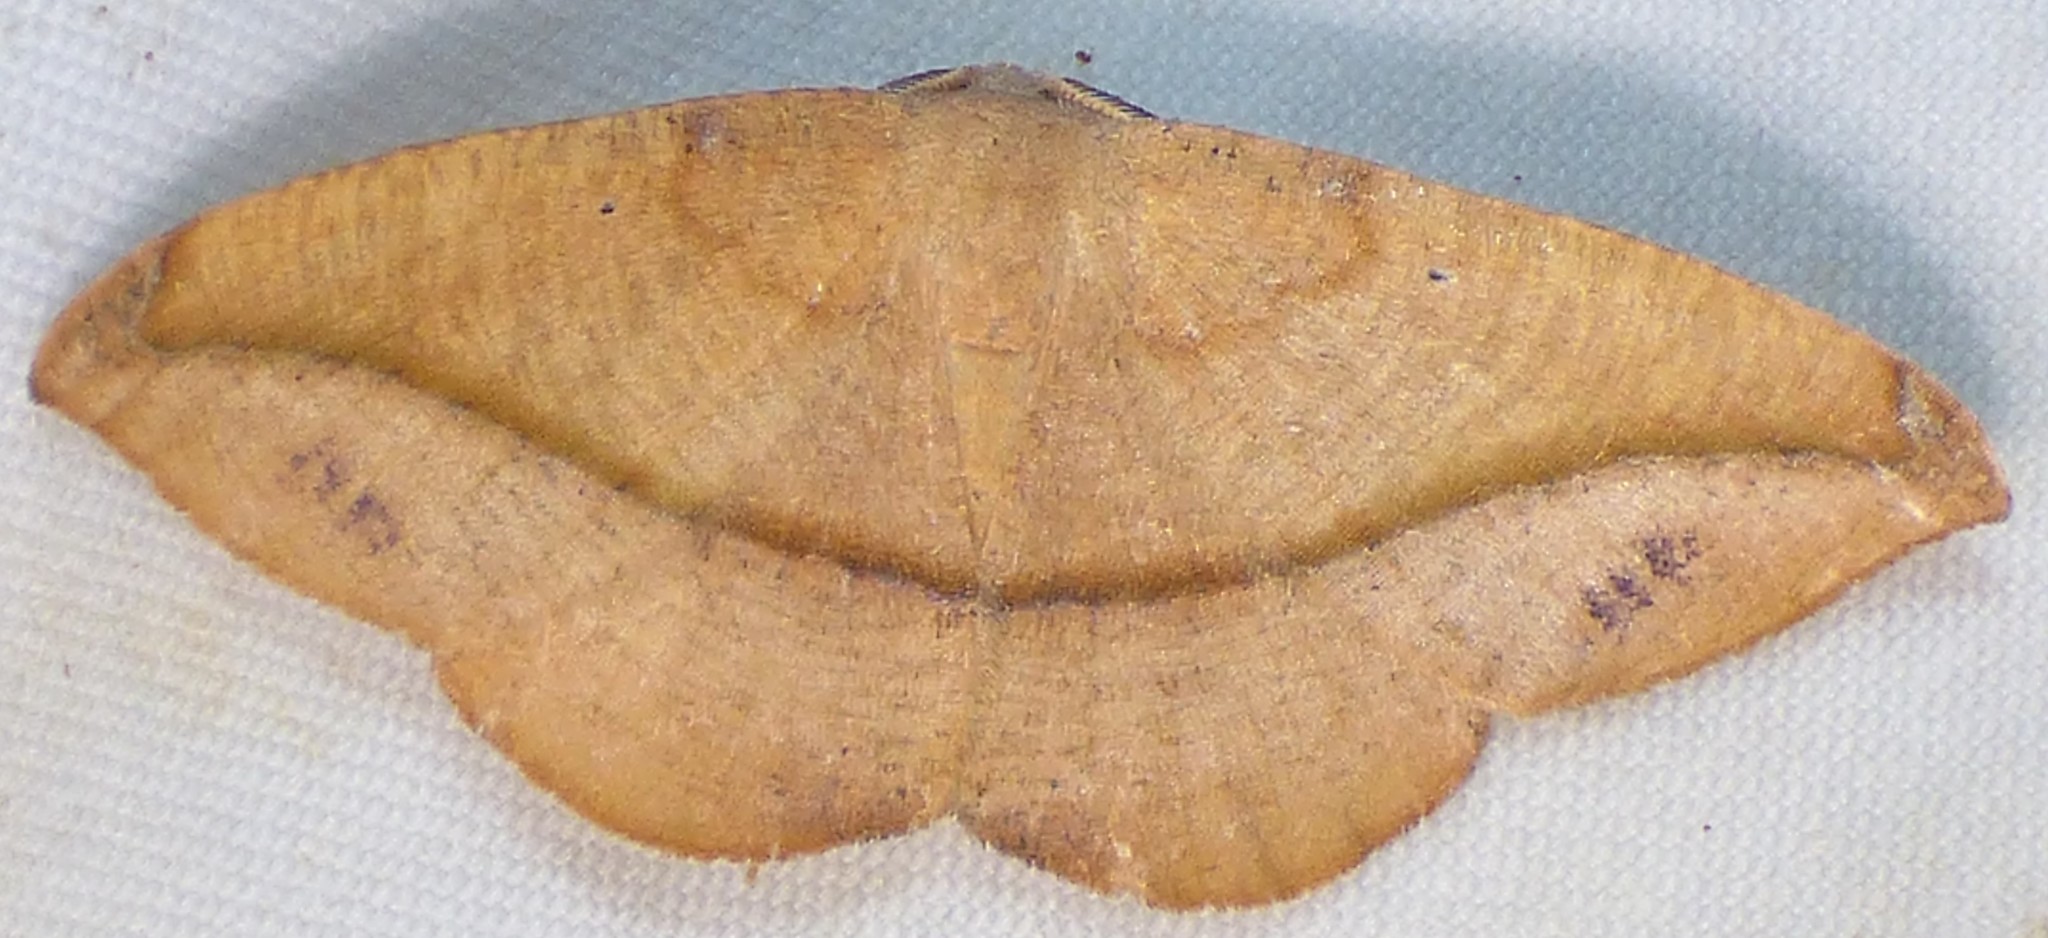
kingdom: Animalia
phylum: Arthropoda
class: Insecta
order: Lepidoptera
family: Geometridae
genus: Patalene
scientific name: Patalene olyzonaria
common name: Juniper geometer moth
